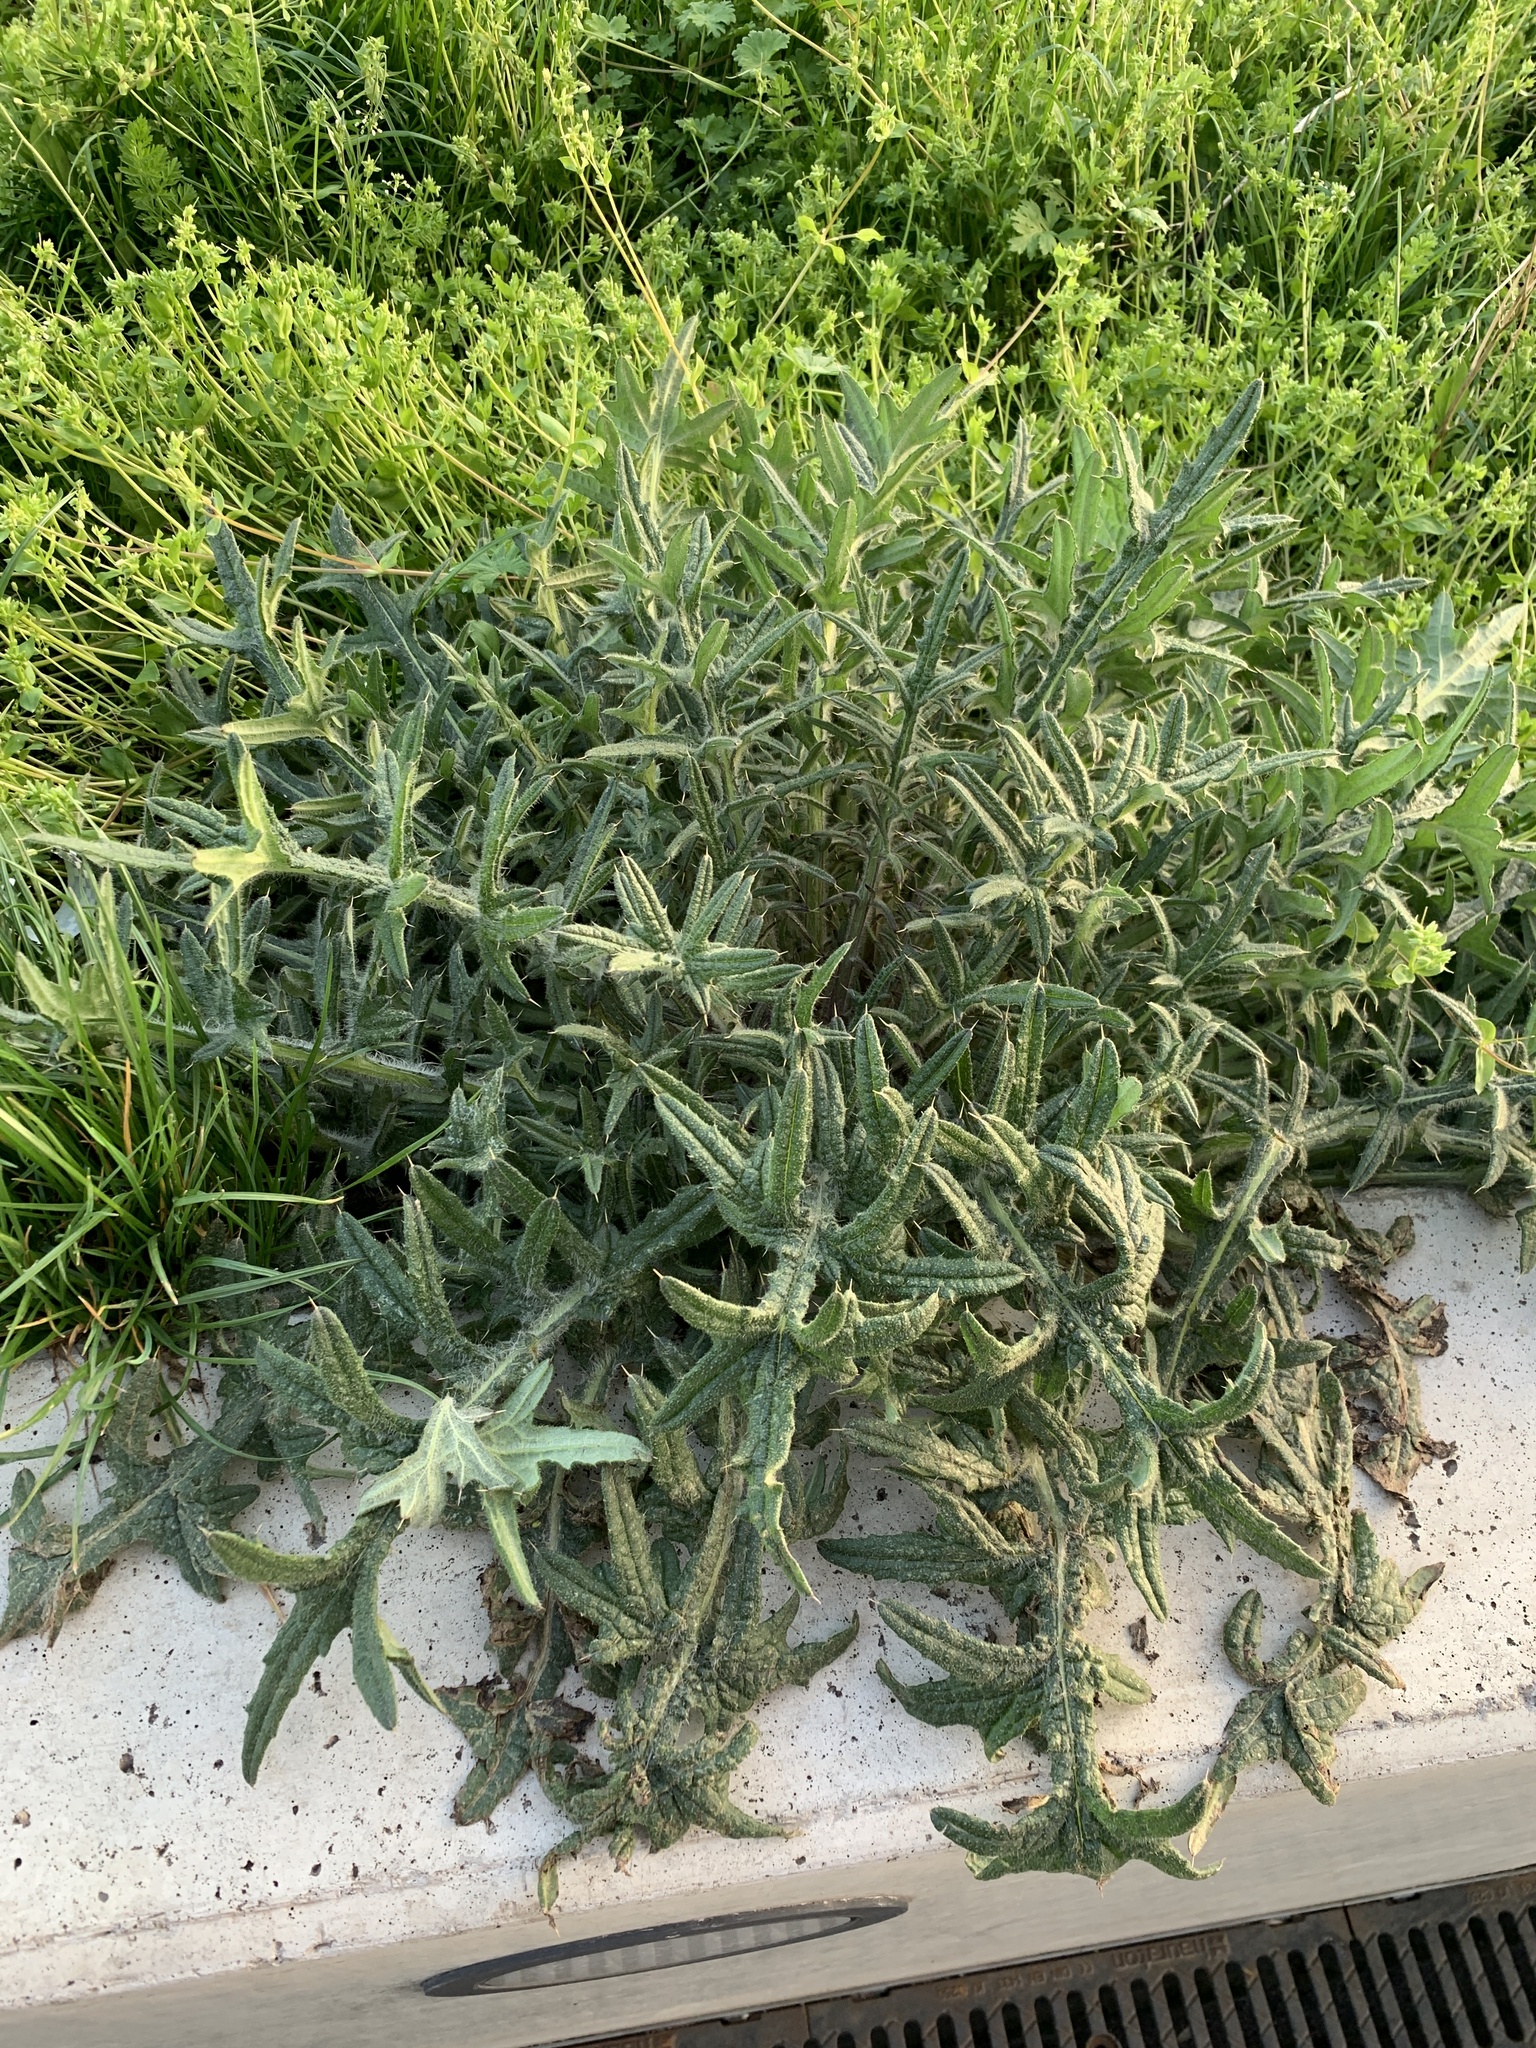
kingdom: Plantae
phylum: Tracheophyta
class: Magnoliopsida
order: Asterales
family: Asteraceae
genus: Cirsium
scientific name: Cirsium vulgare
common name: Bull thistle
